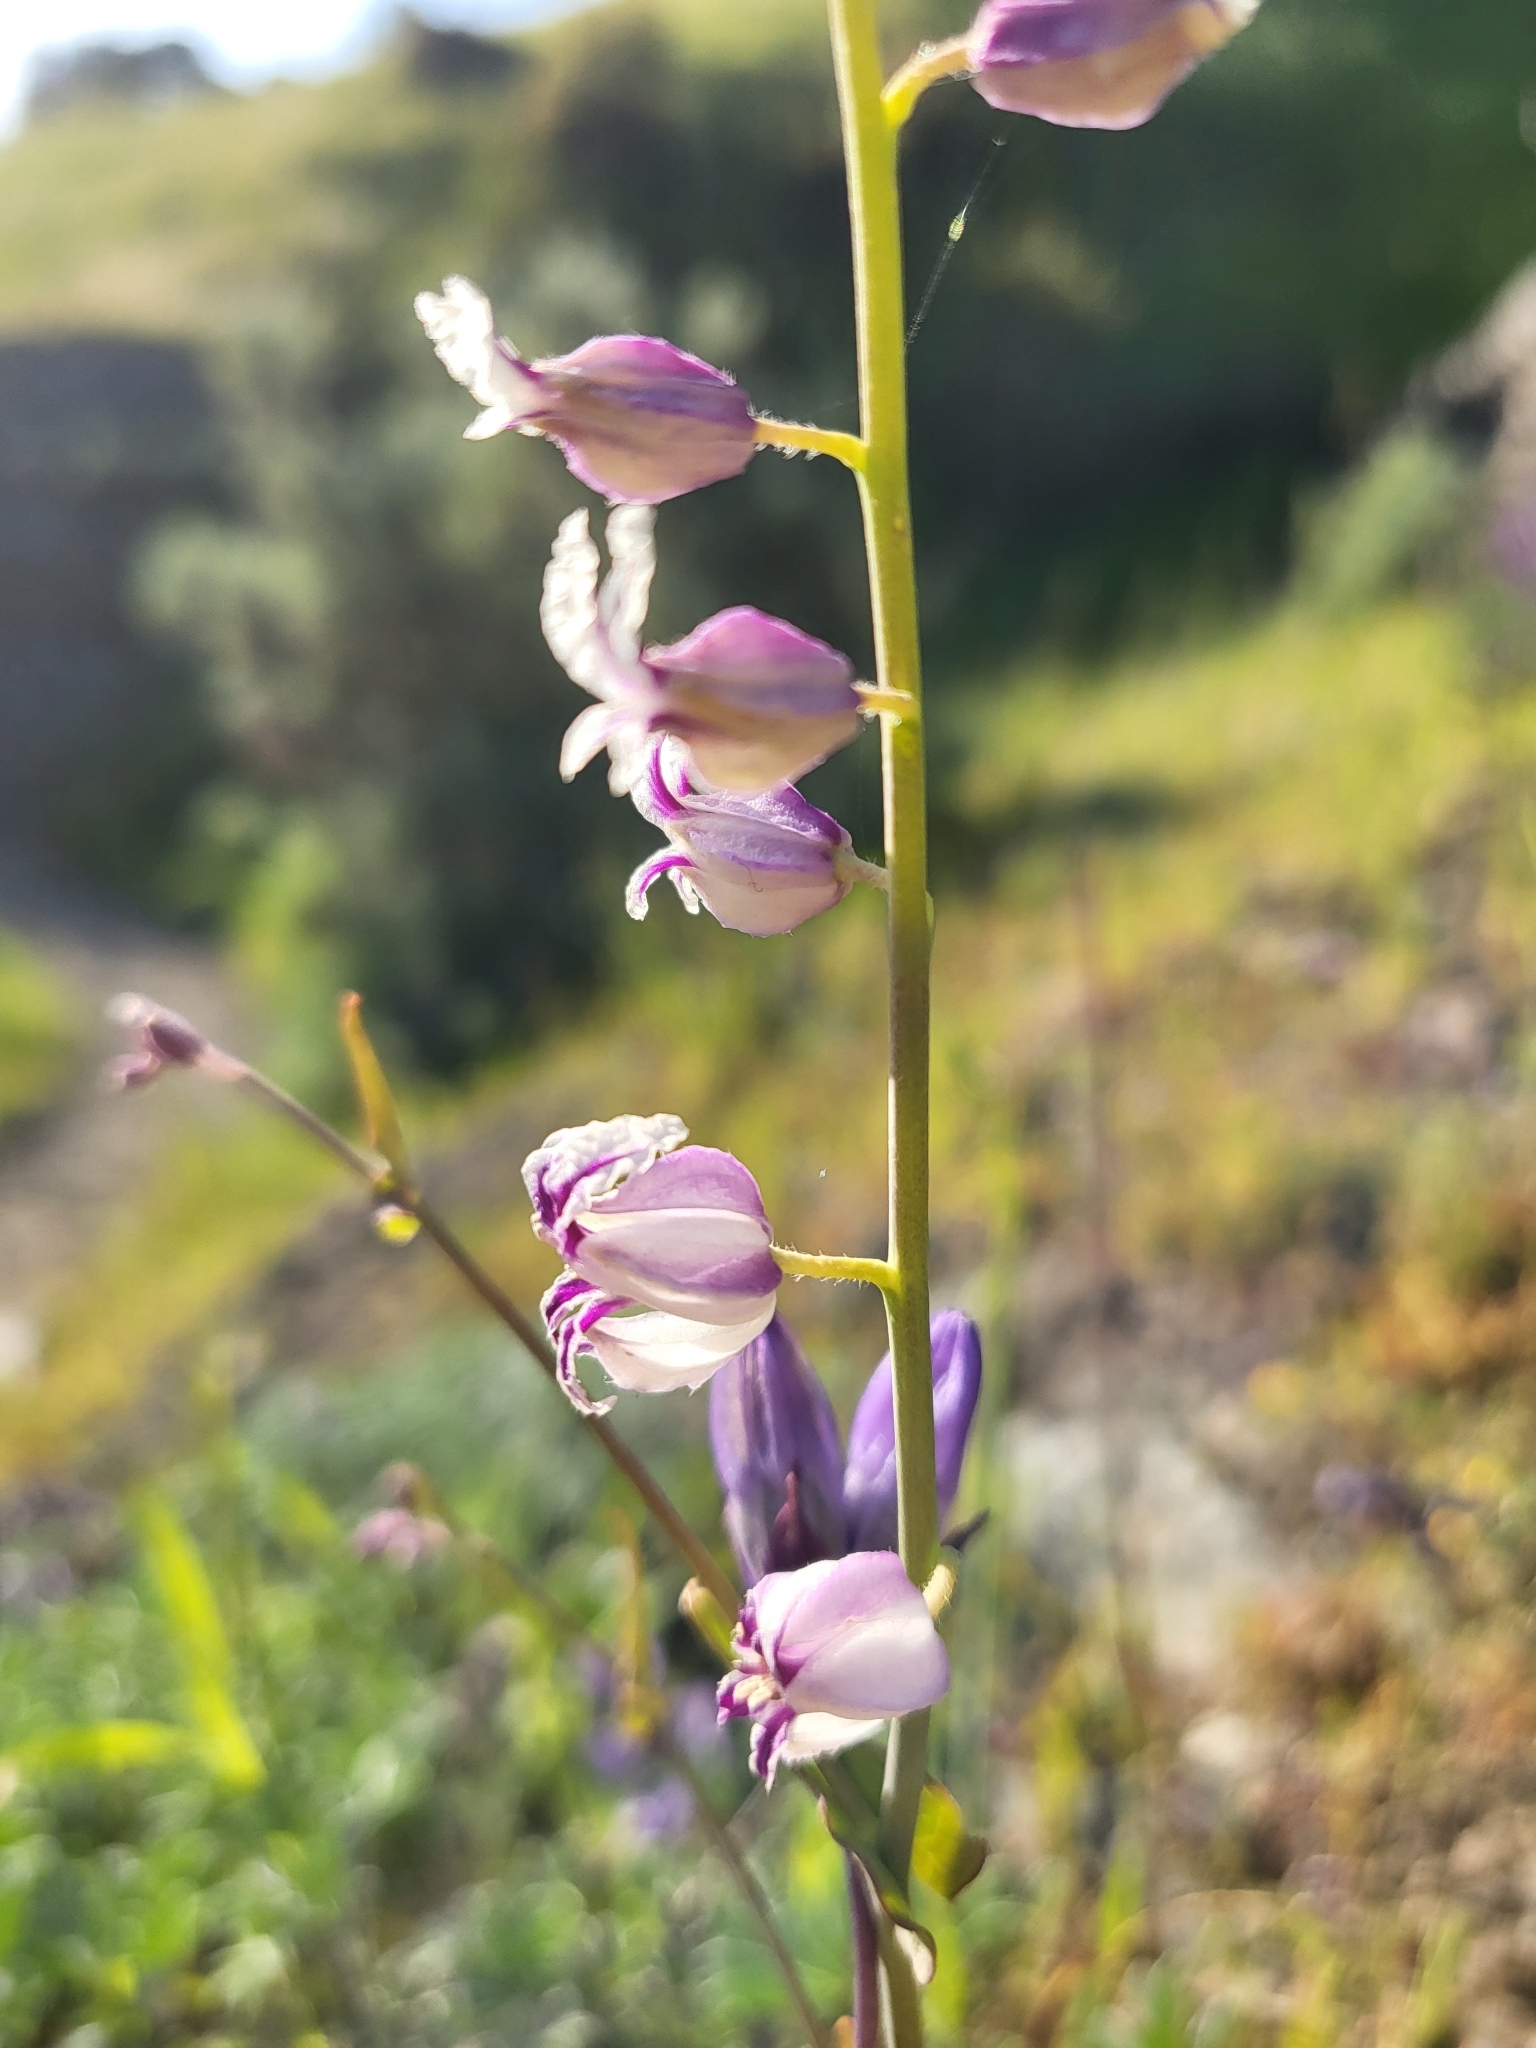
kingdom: Plantae
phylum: Tracheophyta
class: Magnoliopsida
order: Brassicales
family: Brassicaceae
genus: Streptanthus
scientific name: Streptanthus glandulosus
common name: Jewel-flower
